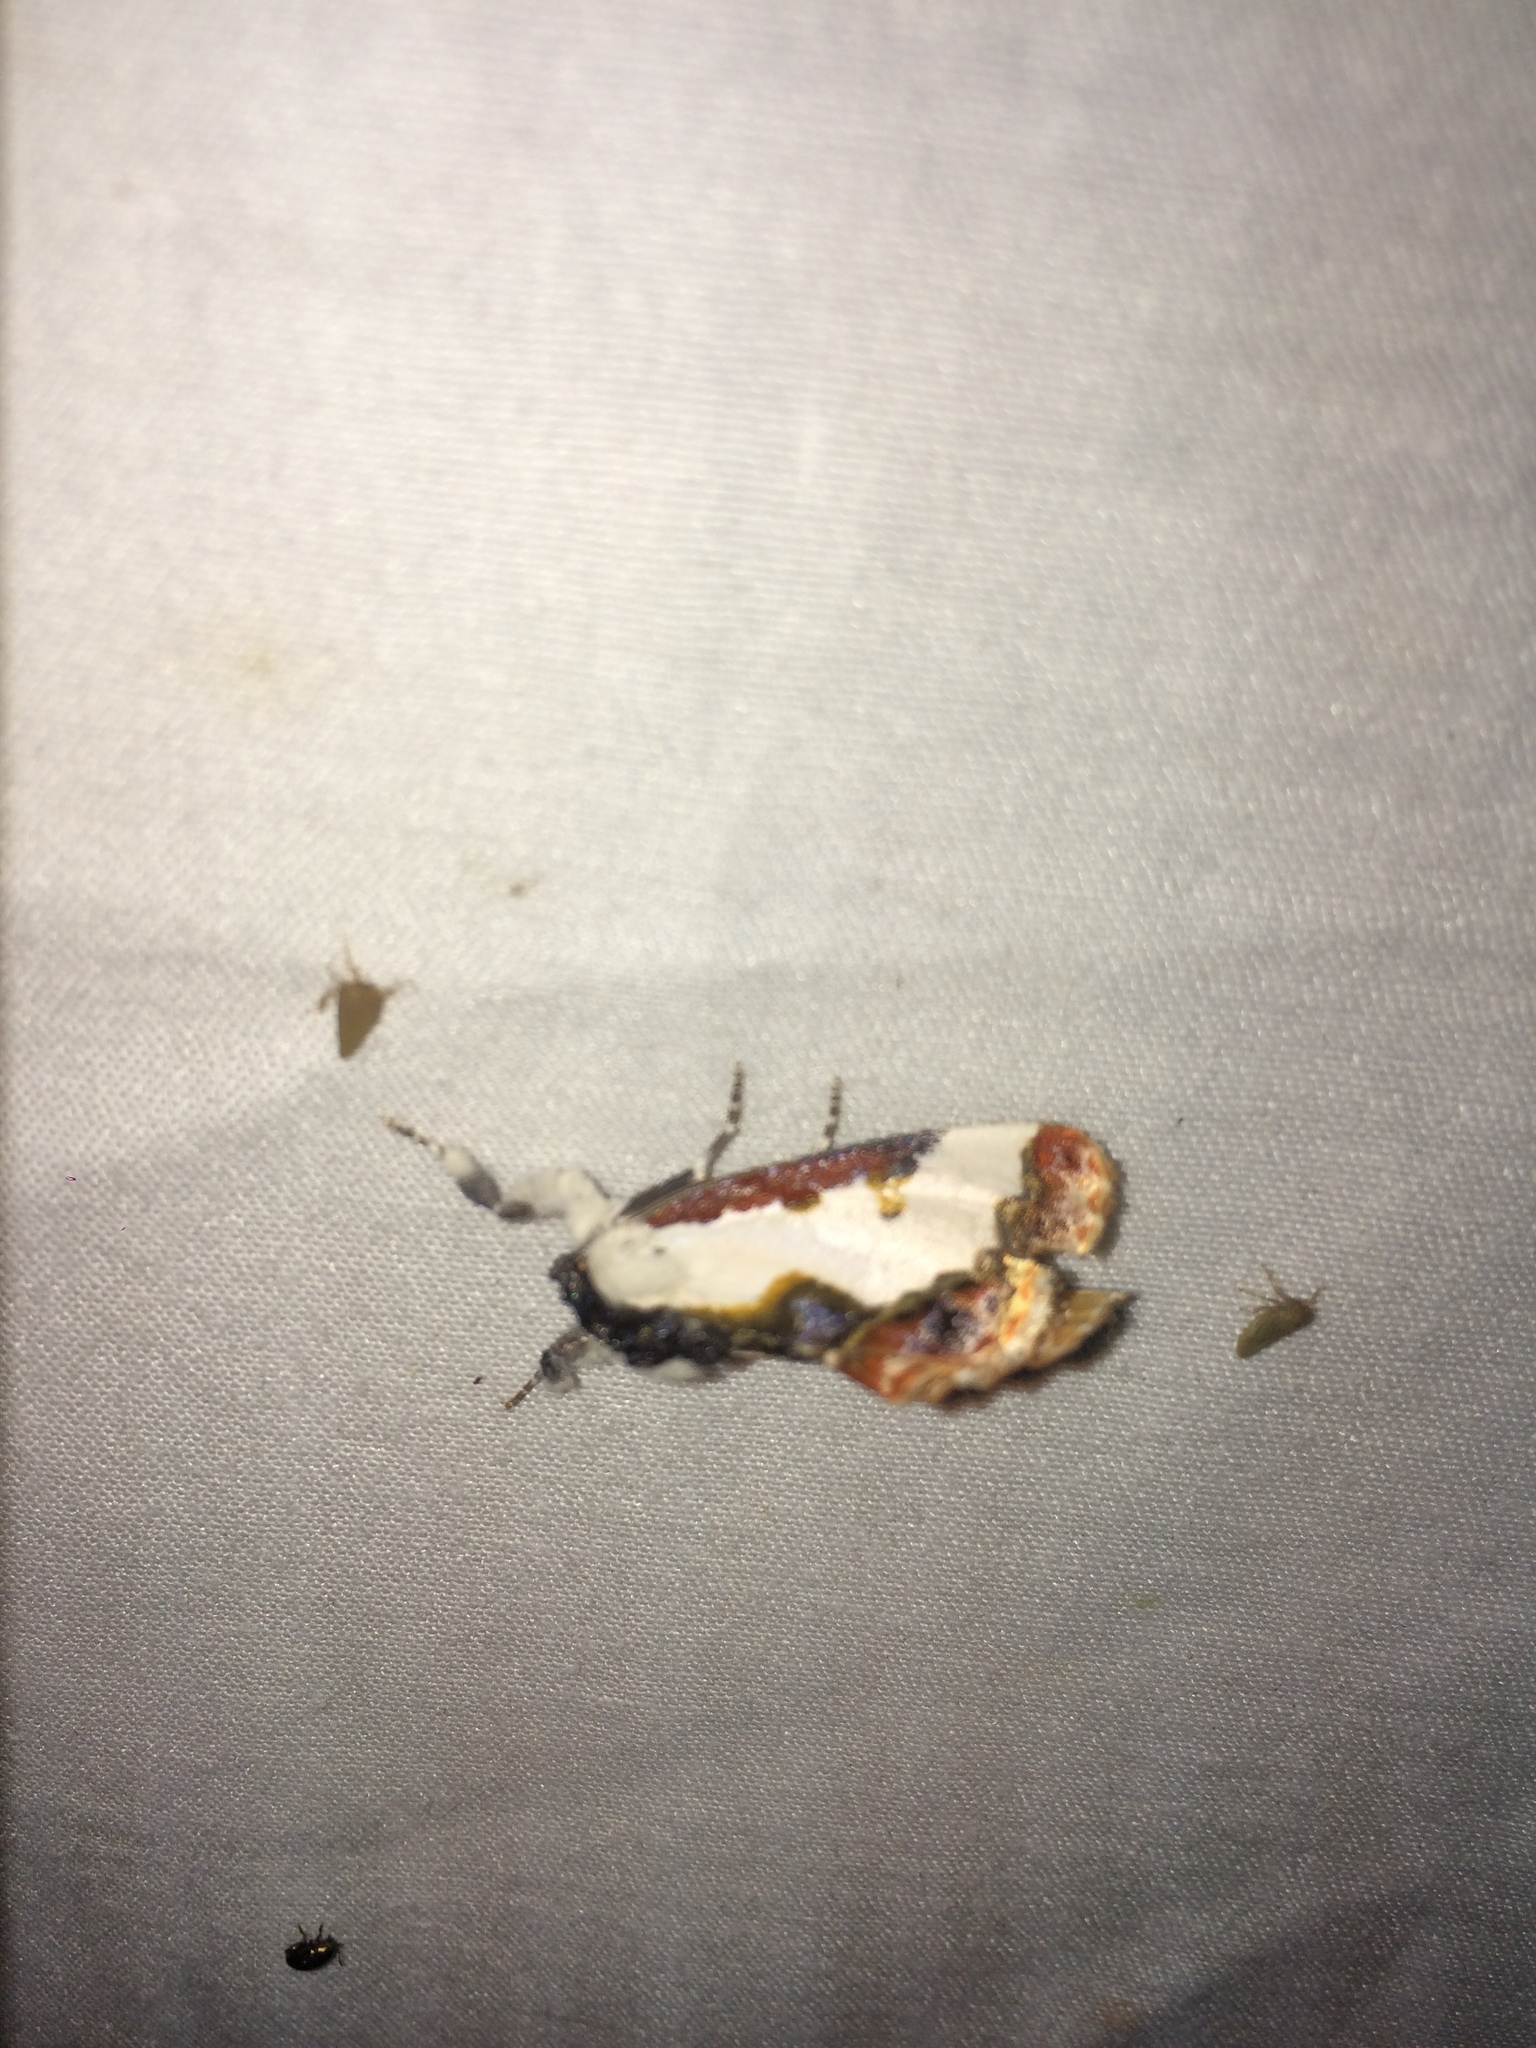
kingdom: Animalia
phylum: Arthropoda
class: Insecta
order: Lepidoptera
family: Noctuidae
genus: Eudryas
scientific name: Eudryas unio
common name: Pearly wood-nymph
